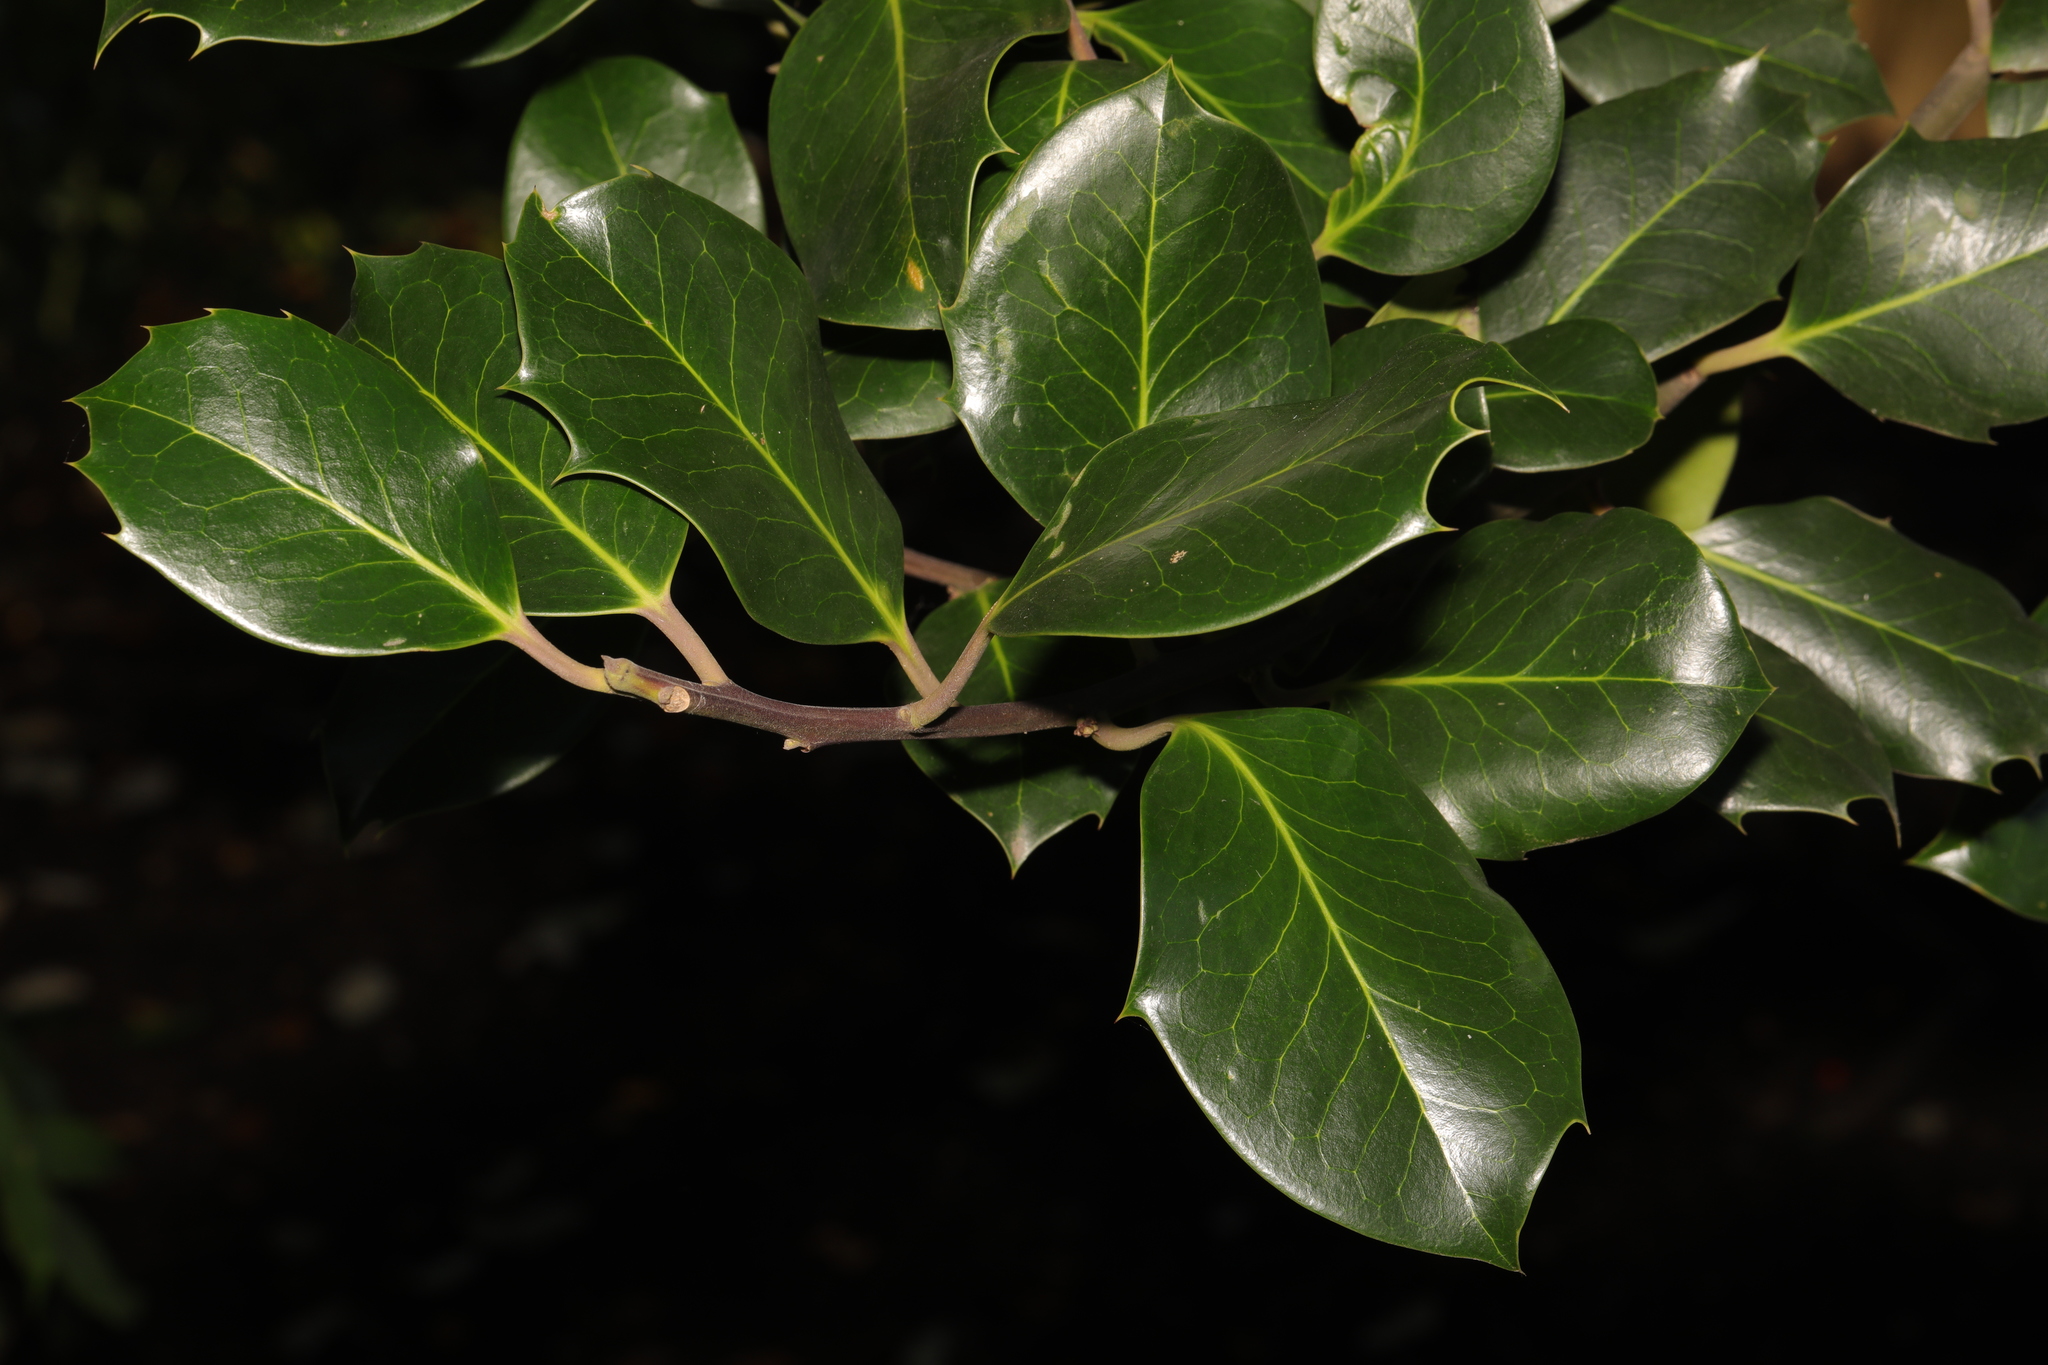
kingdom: Plantae
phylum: Tracheophyta
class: Magnoliopsida
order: Aquifoliales
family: Aquifoliaceae
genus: Ilex
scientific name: Ilex aquifolium
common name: English holly
